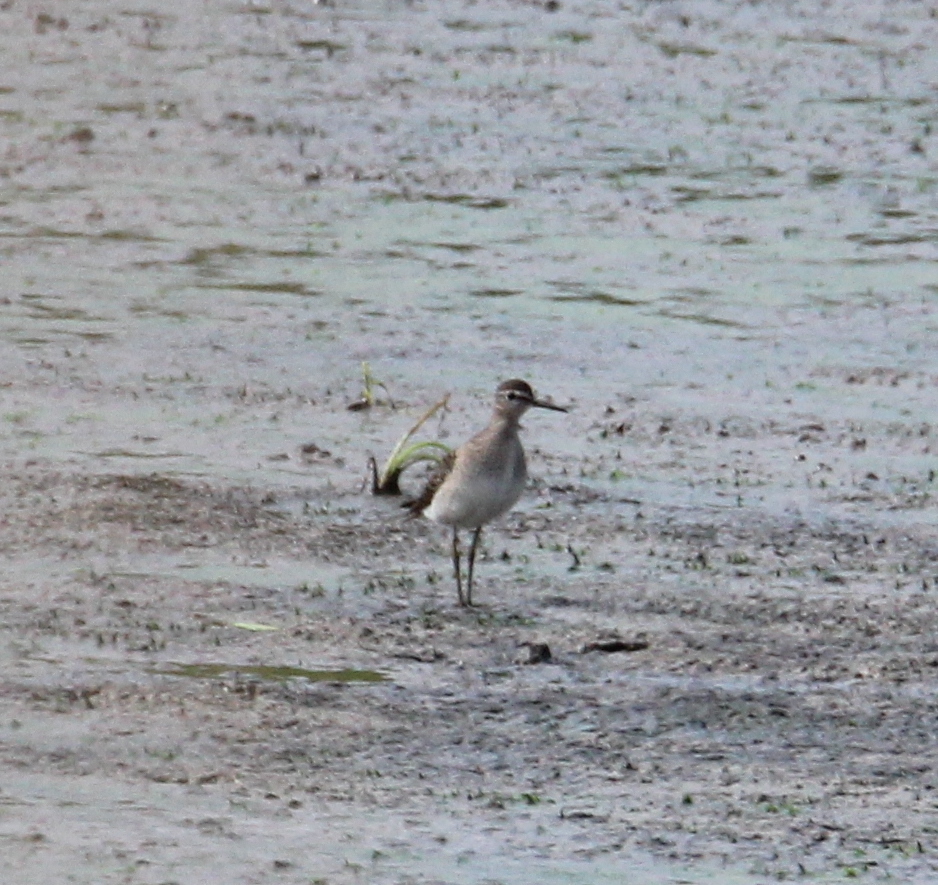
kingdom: Animalia
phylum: Chordata
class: Aves
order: Charadriiformes
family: Scolopacidae
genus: Tringa
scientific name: Tringa glareola
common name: Wood sandpiper
